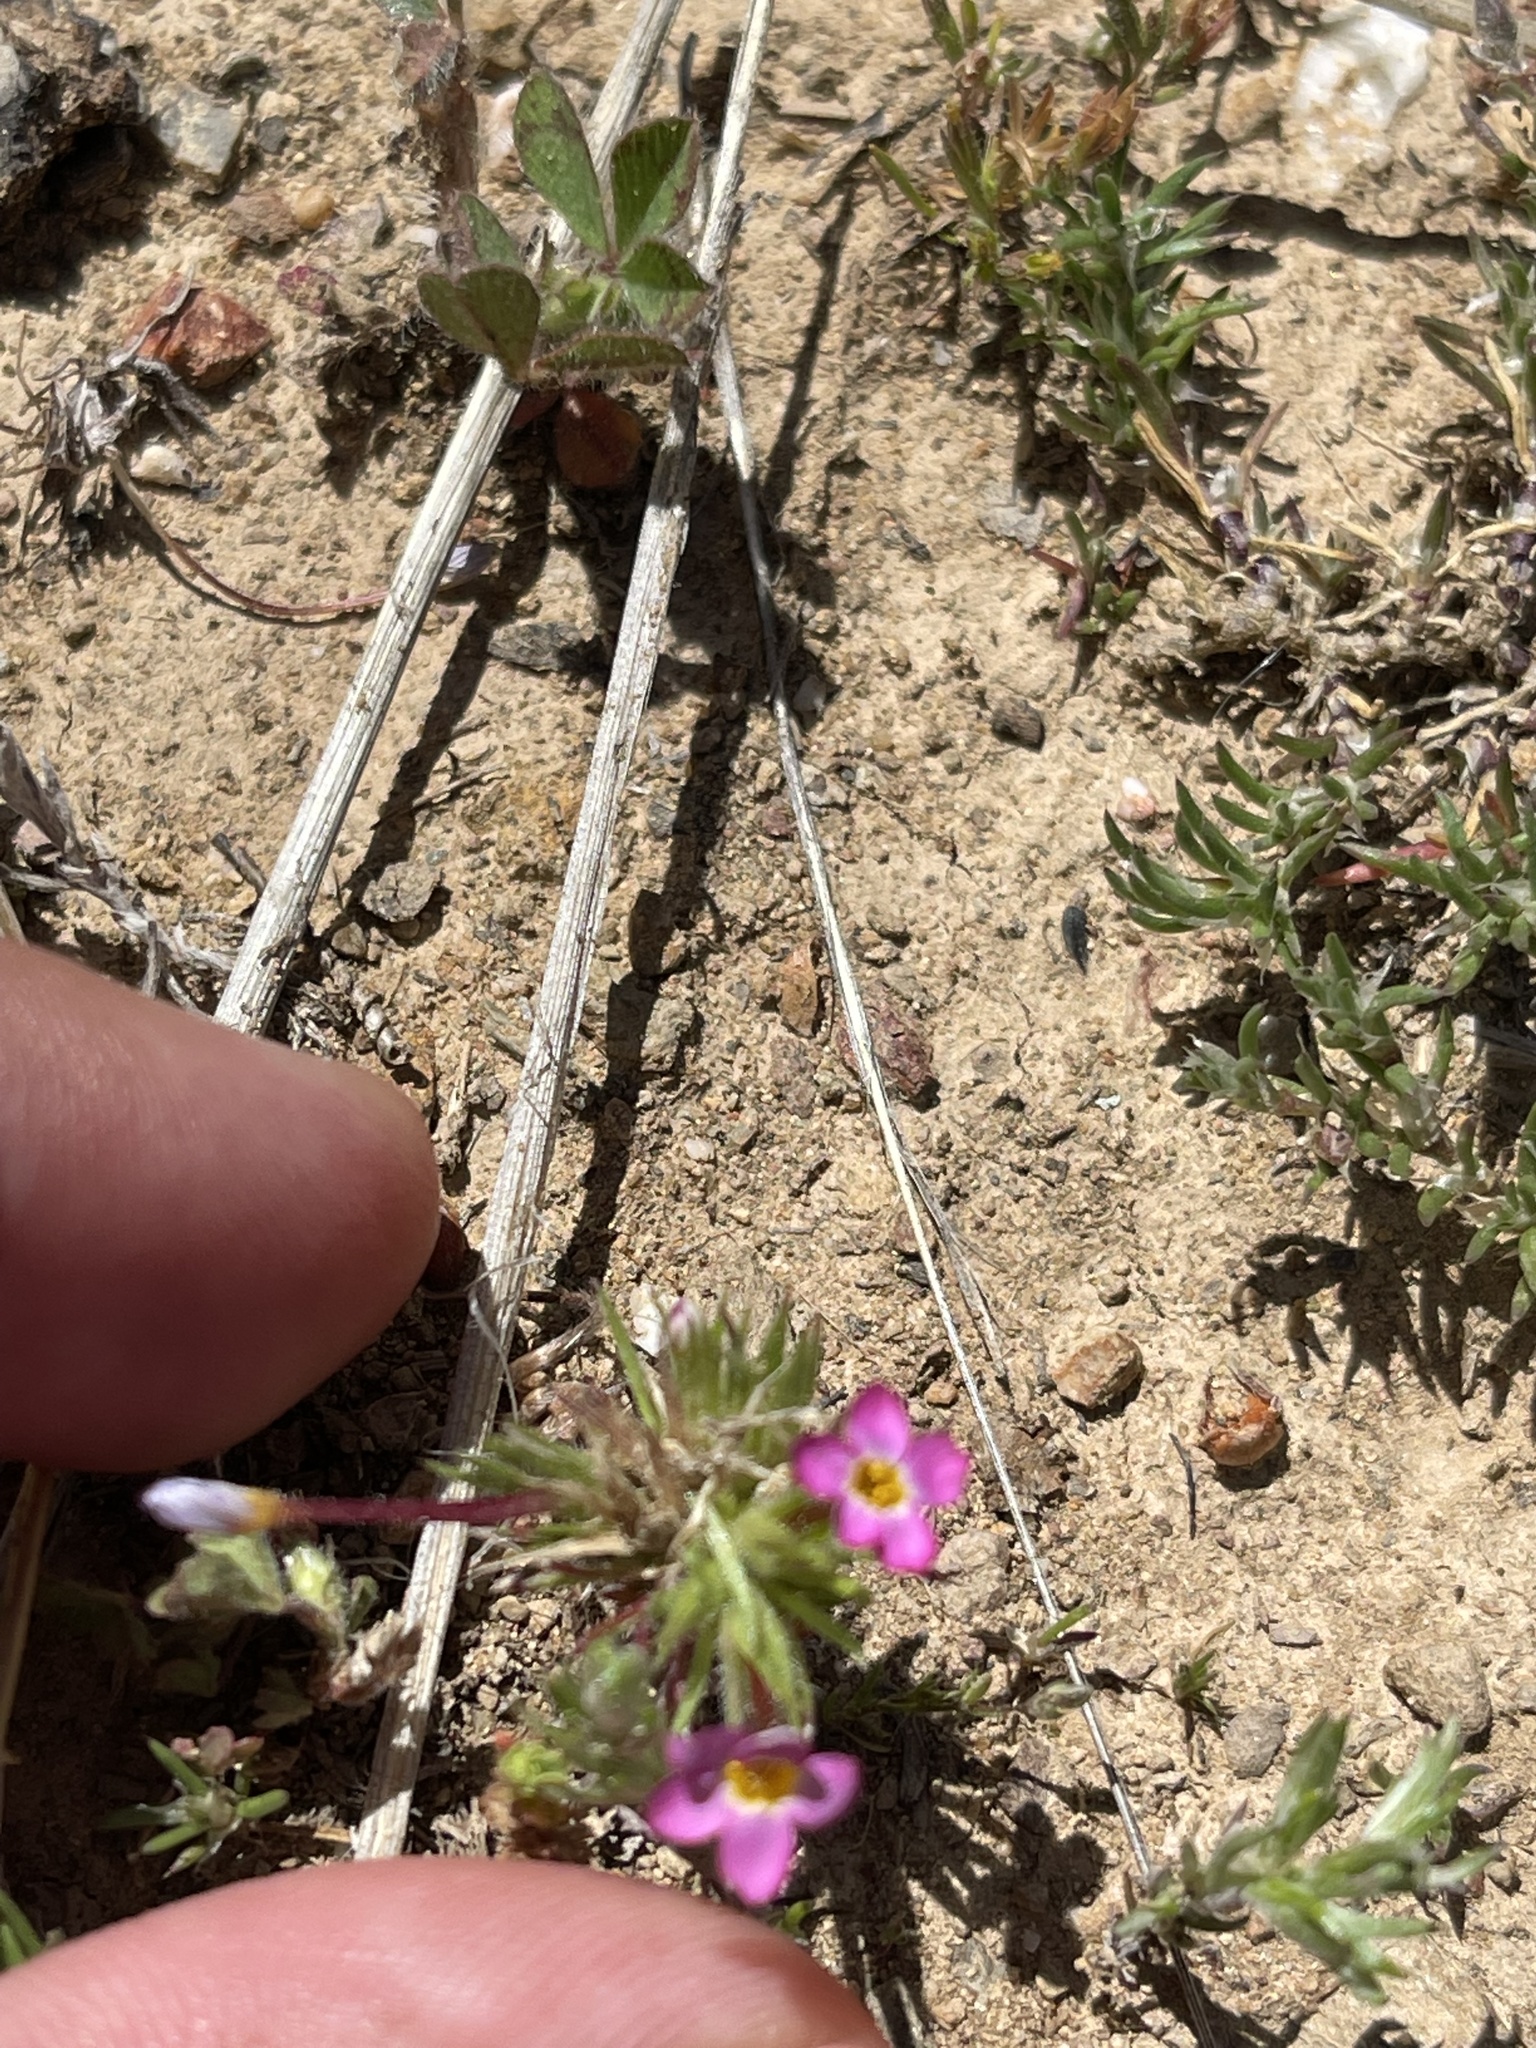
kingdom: Plantae
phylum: Tracheophyta
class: Magnoliopsida
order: Ericales
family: Polemoniaceae
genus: Leptosiphon
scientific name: Leptosiphon bicolor
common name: True babystars
